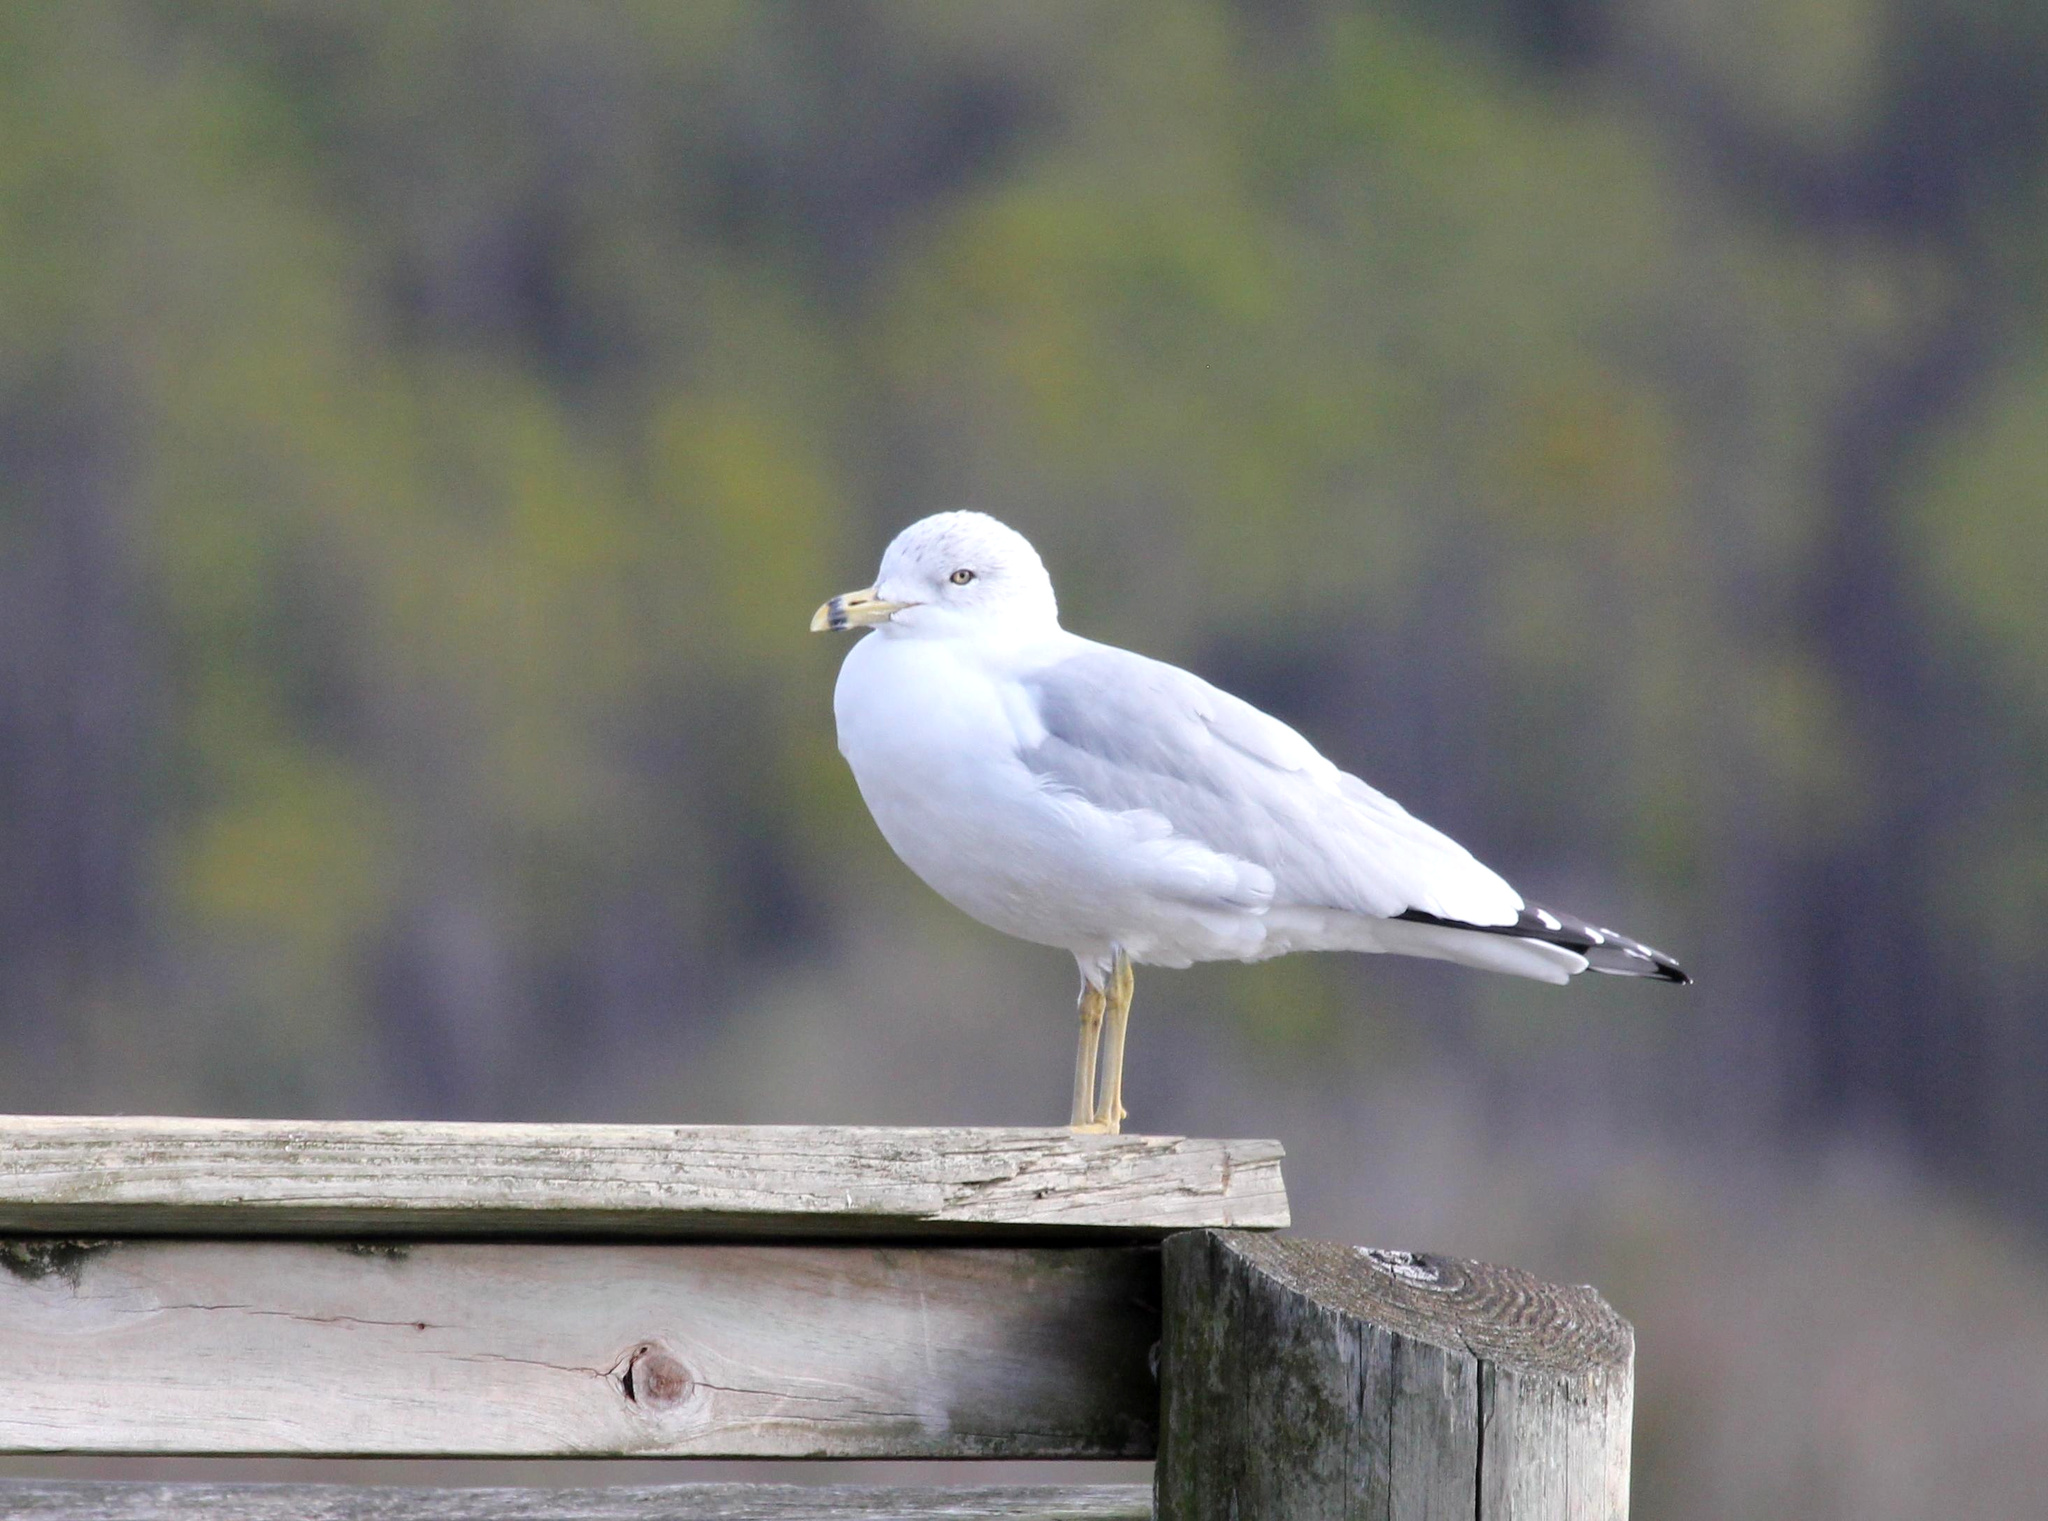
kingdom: Animalia
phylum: Chordata
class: Aves
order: Charadriiformes
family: Laridae
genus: Larus
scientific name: Larus delawarensis
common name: Ring-billed gull
